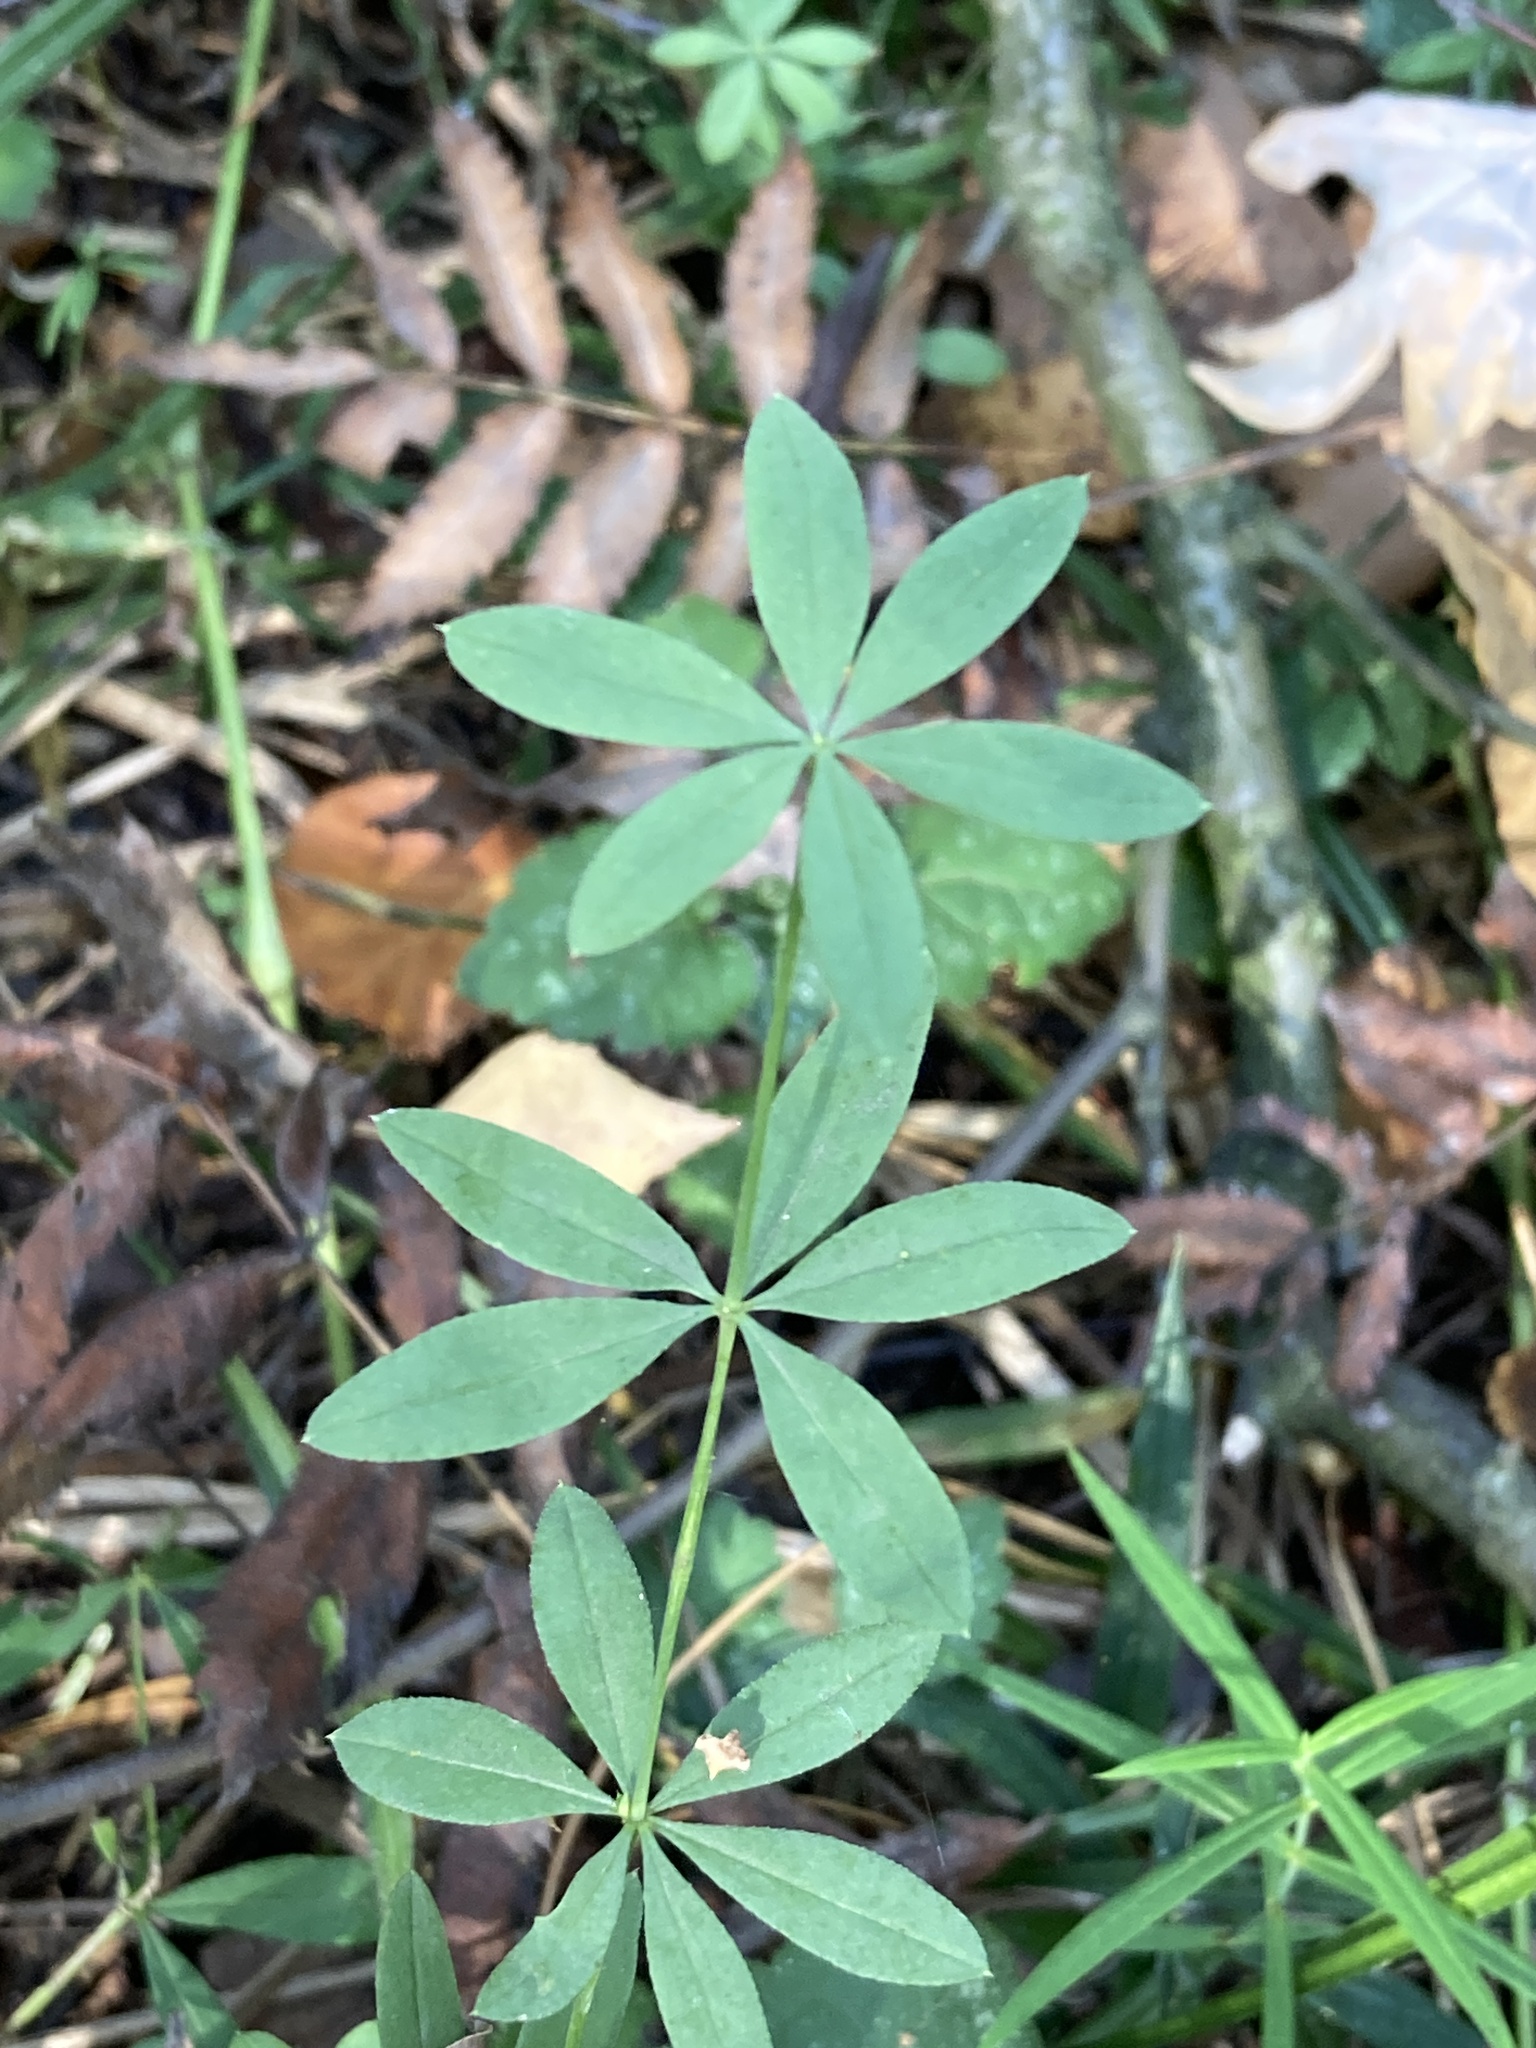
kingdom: Plantae
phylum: Tracheophyta
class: Magnoliopsida
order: Gentianales
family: Rubiaceae
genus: Galium
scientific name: Galium intermedium
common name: Bedstraw
